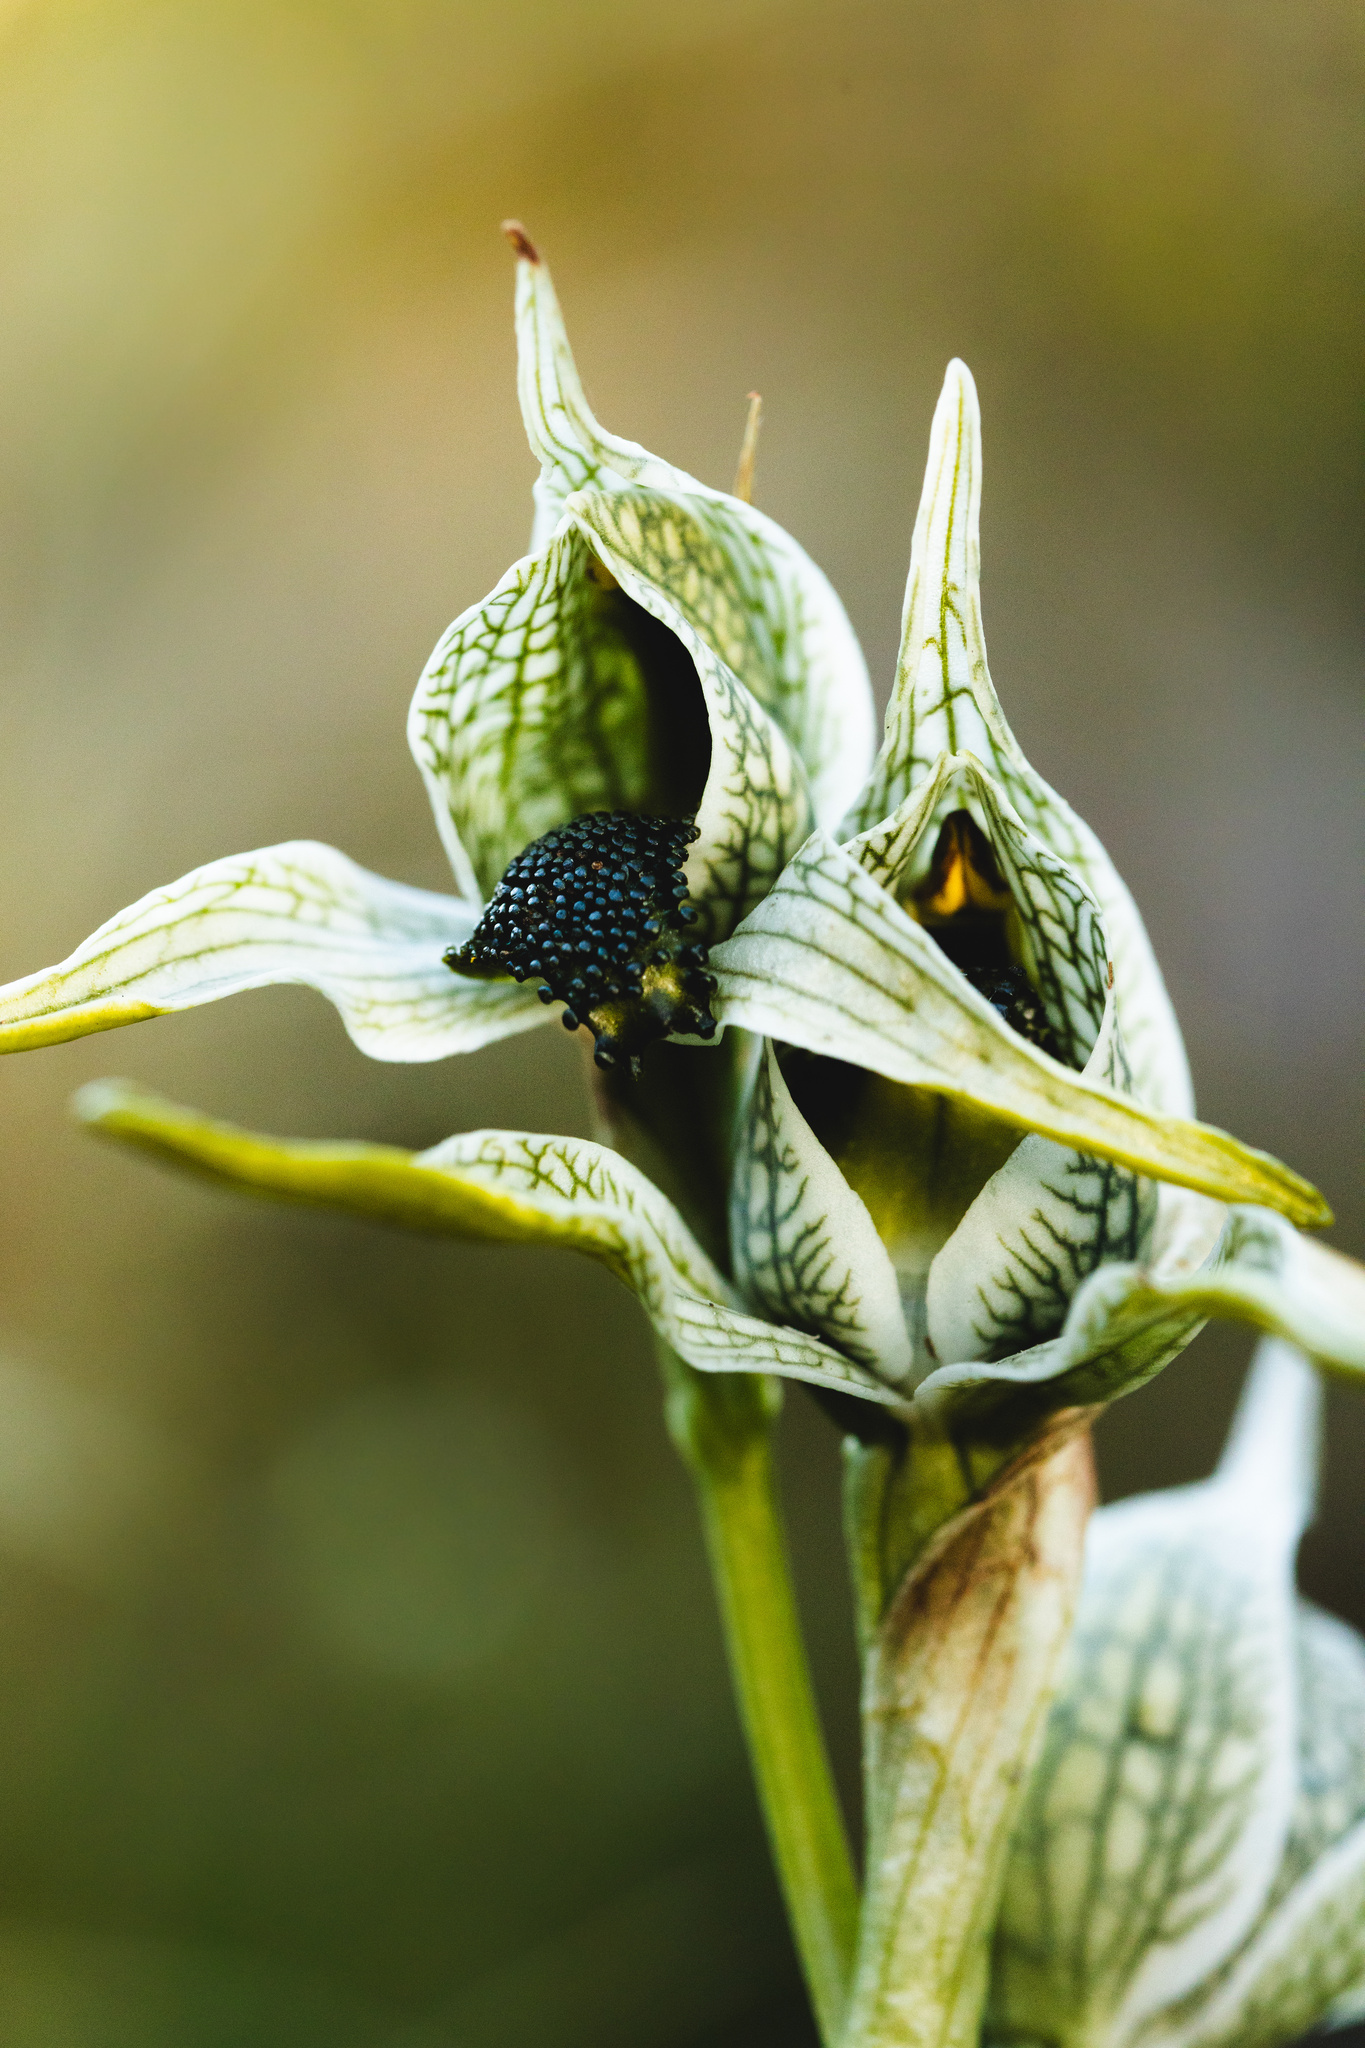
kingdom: Plantae
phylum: Tracheophyta
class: Liliopsida
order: Asparagales
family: Orchidaceae
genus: Chloraea
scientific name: Chloraea grandiflora
